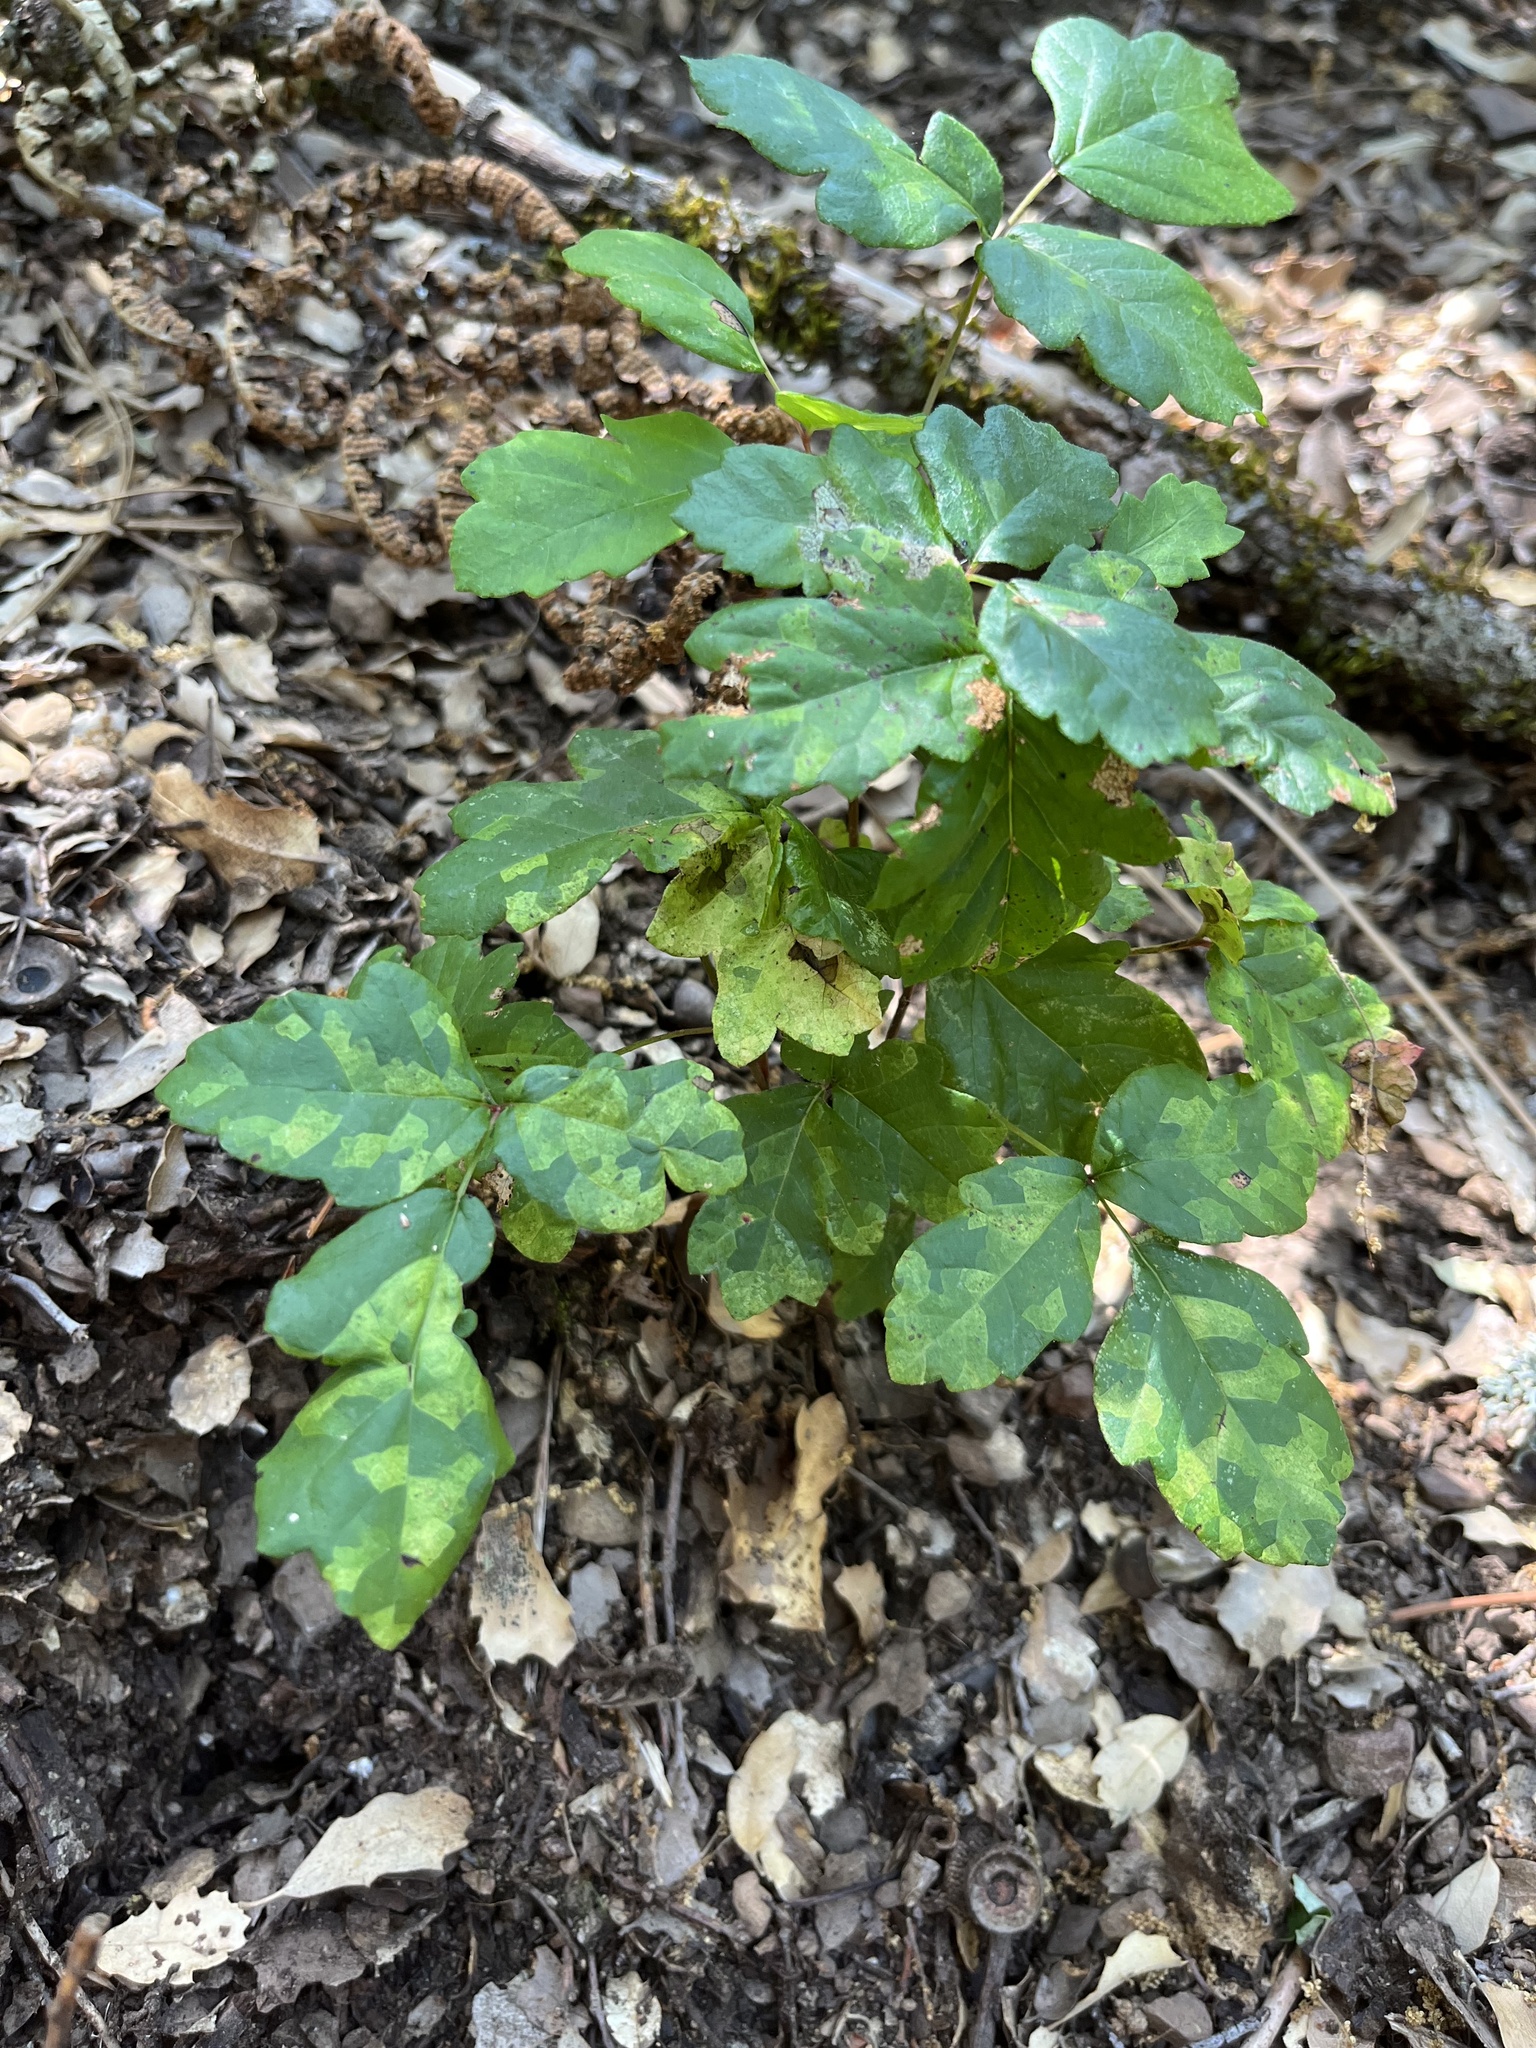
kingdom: Plantae
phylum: Tracheophyta
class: Magnoliopsida
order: Sapindales
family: Anacardiaceae
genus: Toxicodendron
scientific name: Toxicodendron diversilobum
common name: Pacific poison-oak
